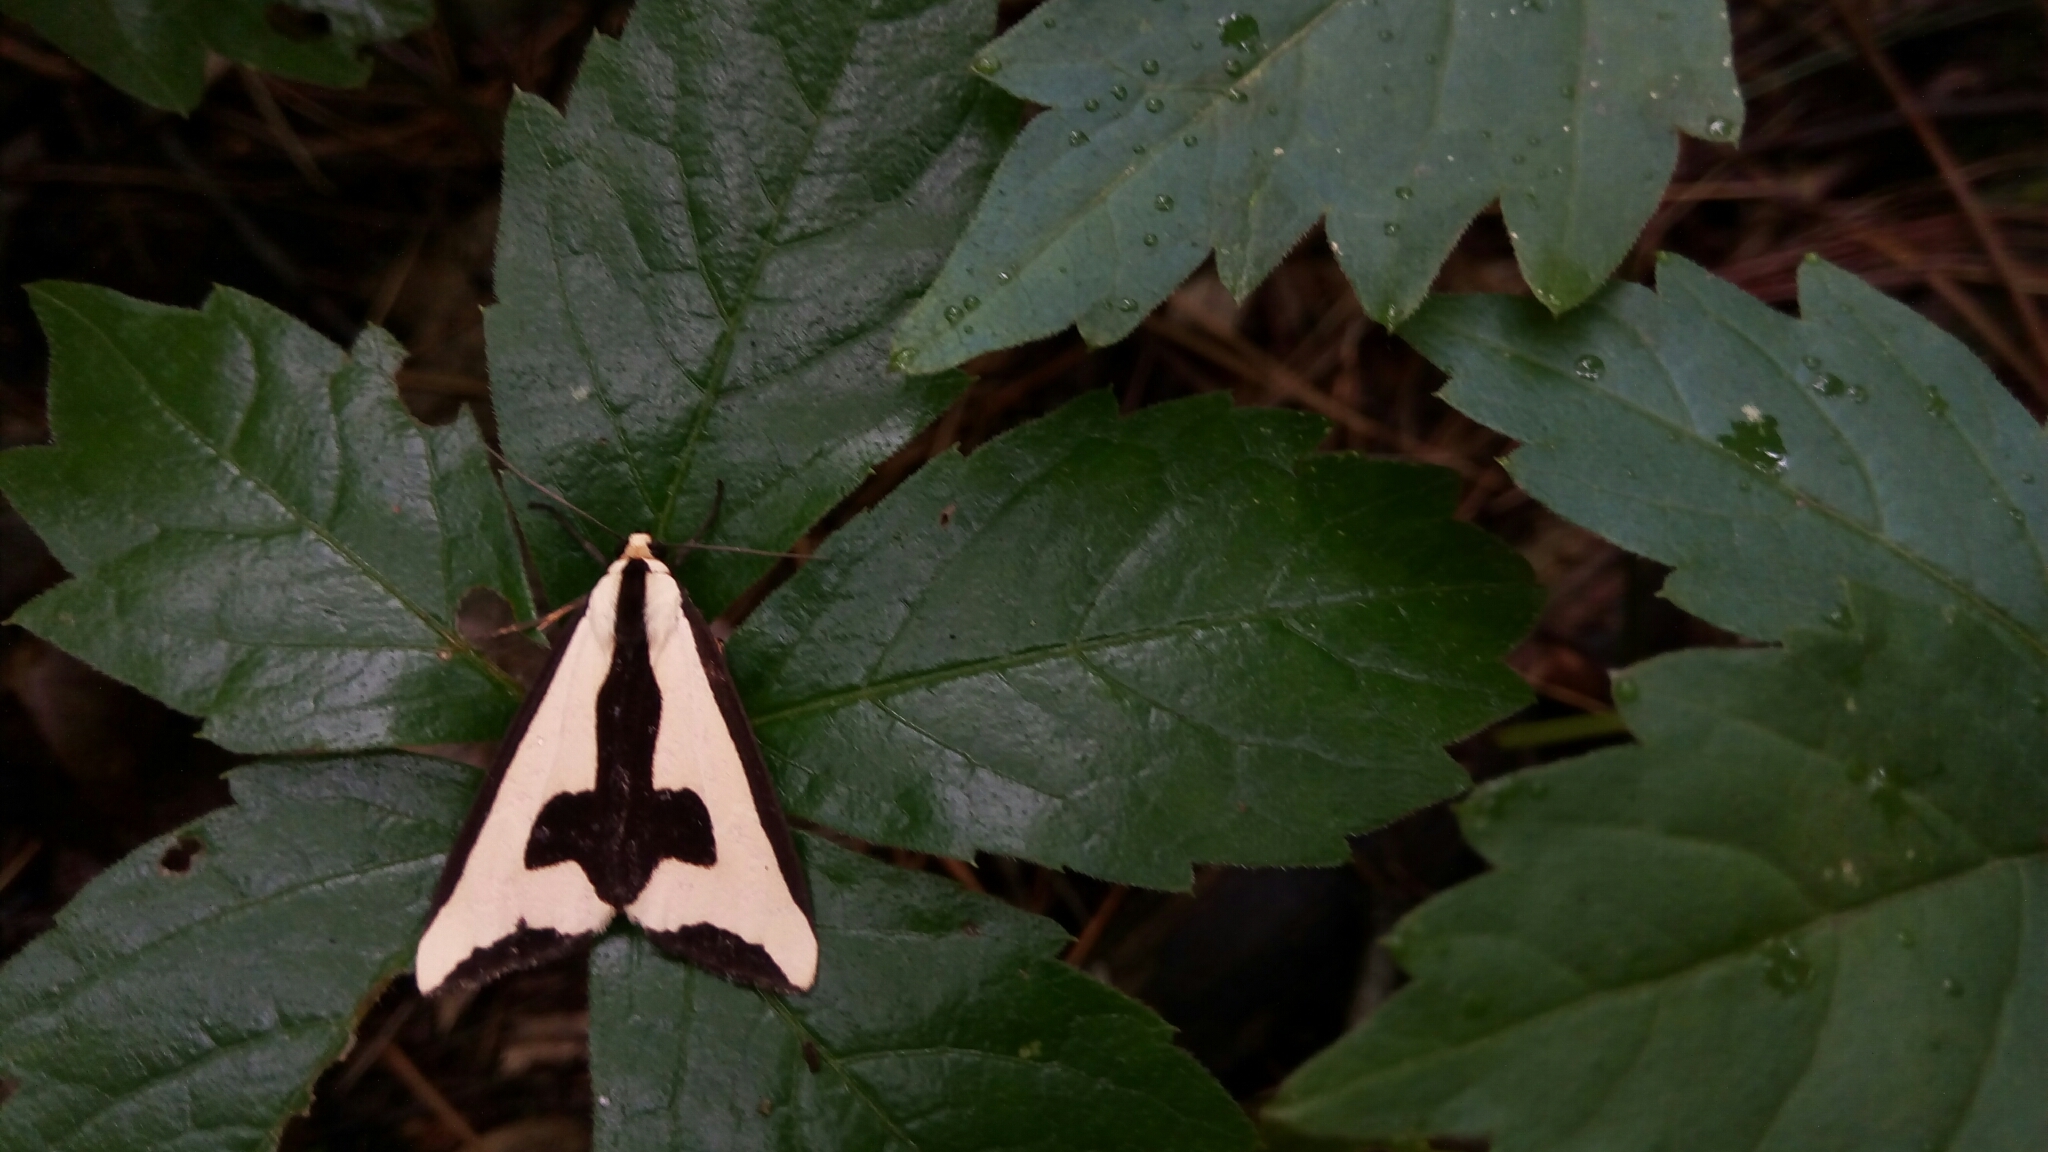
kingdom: Animalia
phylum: Arthropoda
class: Insecta
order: Lepidoptera
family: Erebidae
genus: Haploa
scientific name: Haploa clymene
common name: Clymene moth
